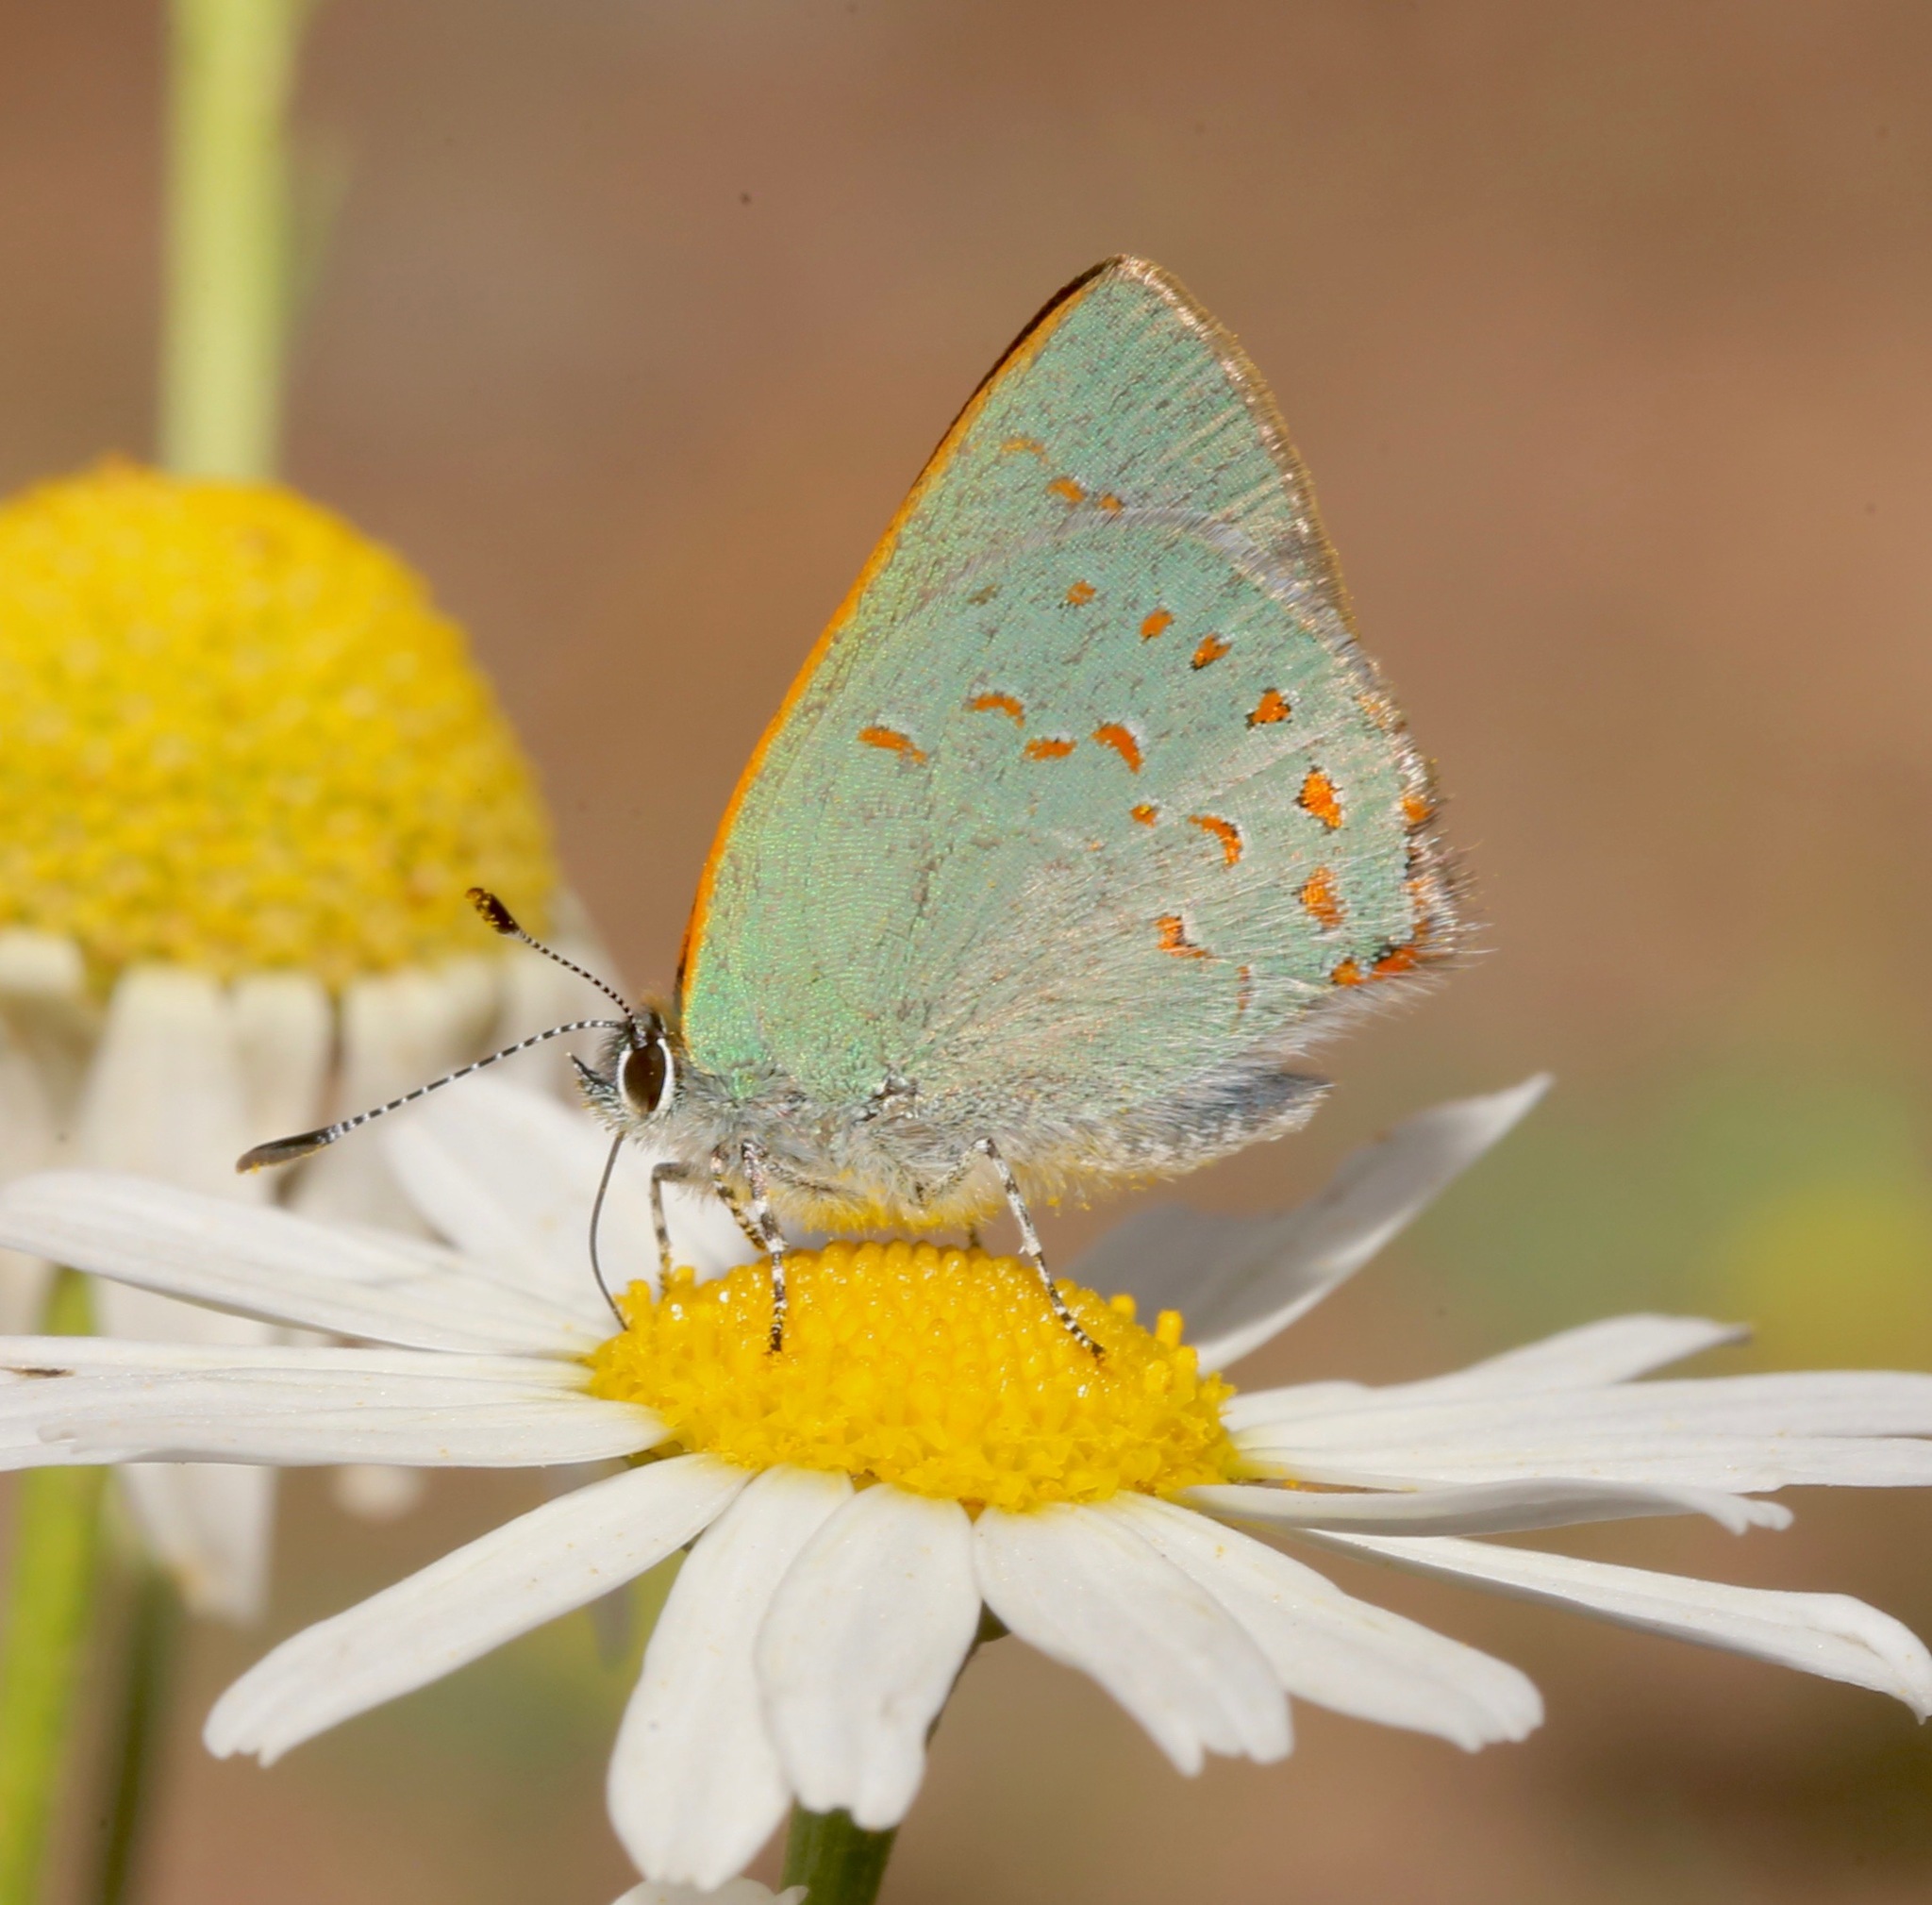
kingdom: Animalia
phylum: Arthropoda
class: Insecta
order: Lepidoptera
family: Lycaenidae
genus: Erora
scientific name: Erora quaderna
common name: Arizona hairstreak
